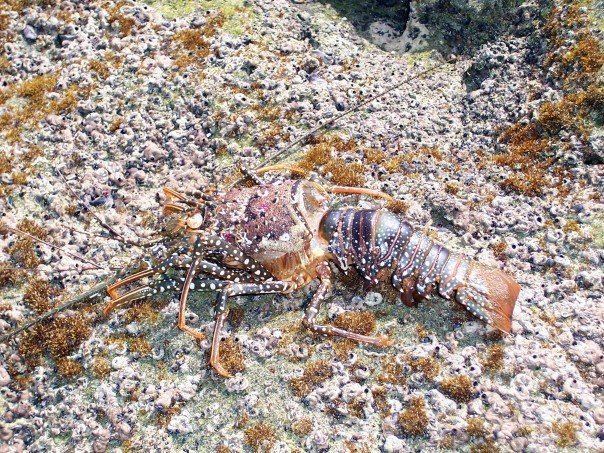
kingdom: Animalia
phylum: Arthropoda
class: Malacostraca
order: Decapoda
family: Palinuridae
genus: Panulirus
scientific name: Panulirus guttatus
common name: Spotted spiny lobster
